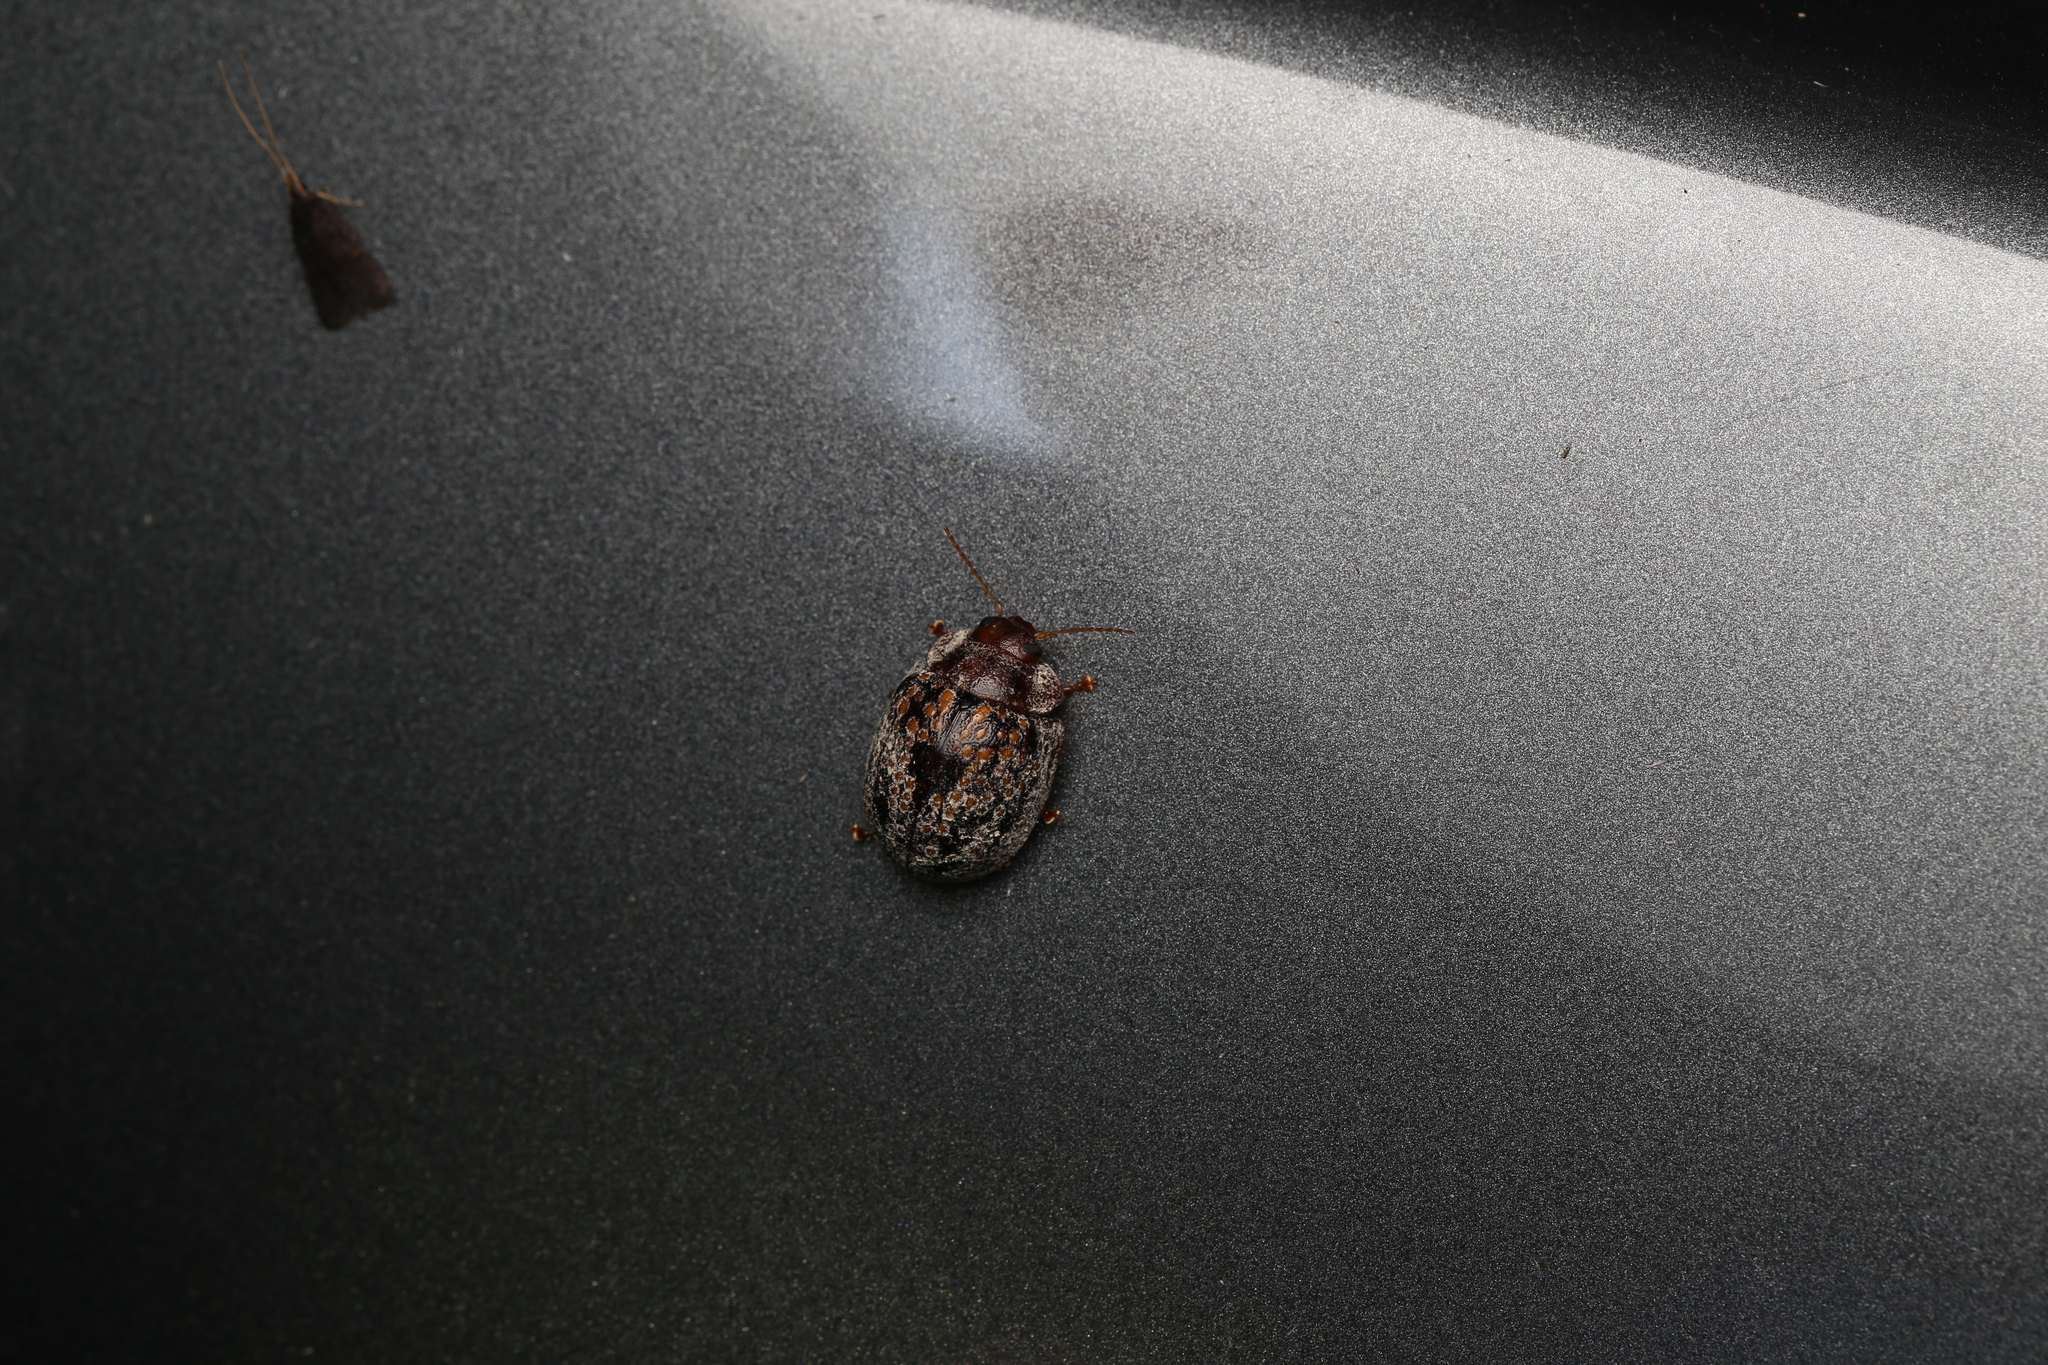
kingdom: Animalia
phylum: Arthropoda
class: Insecta
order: Coleoptera
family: Chrysomelidae
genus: Trachymela
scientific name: Trachymela
